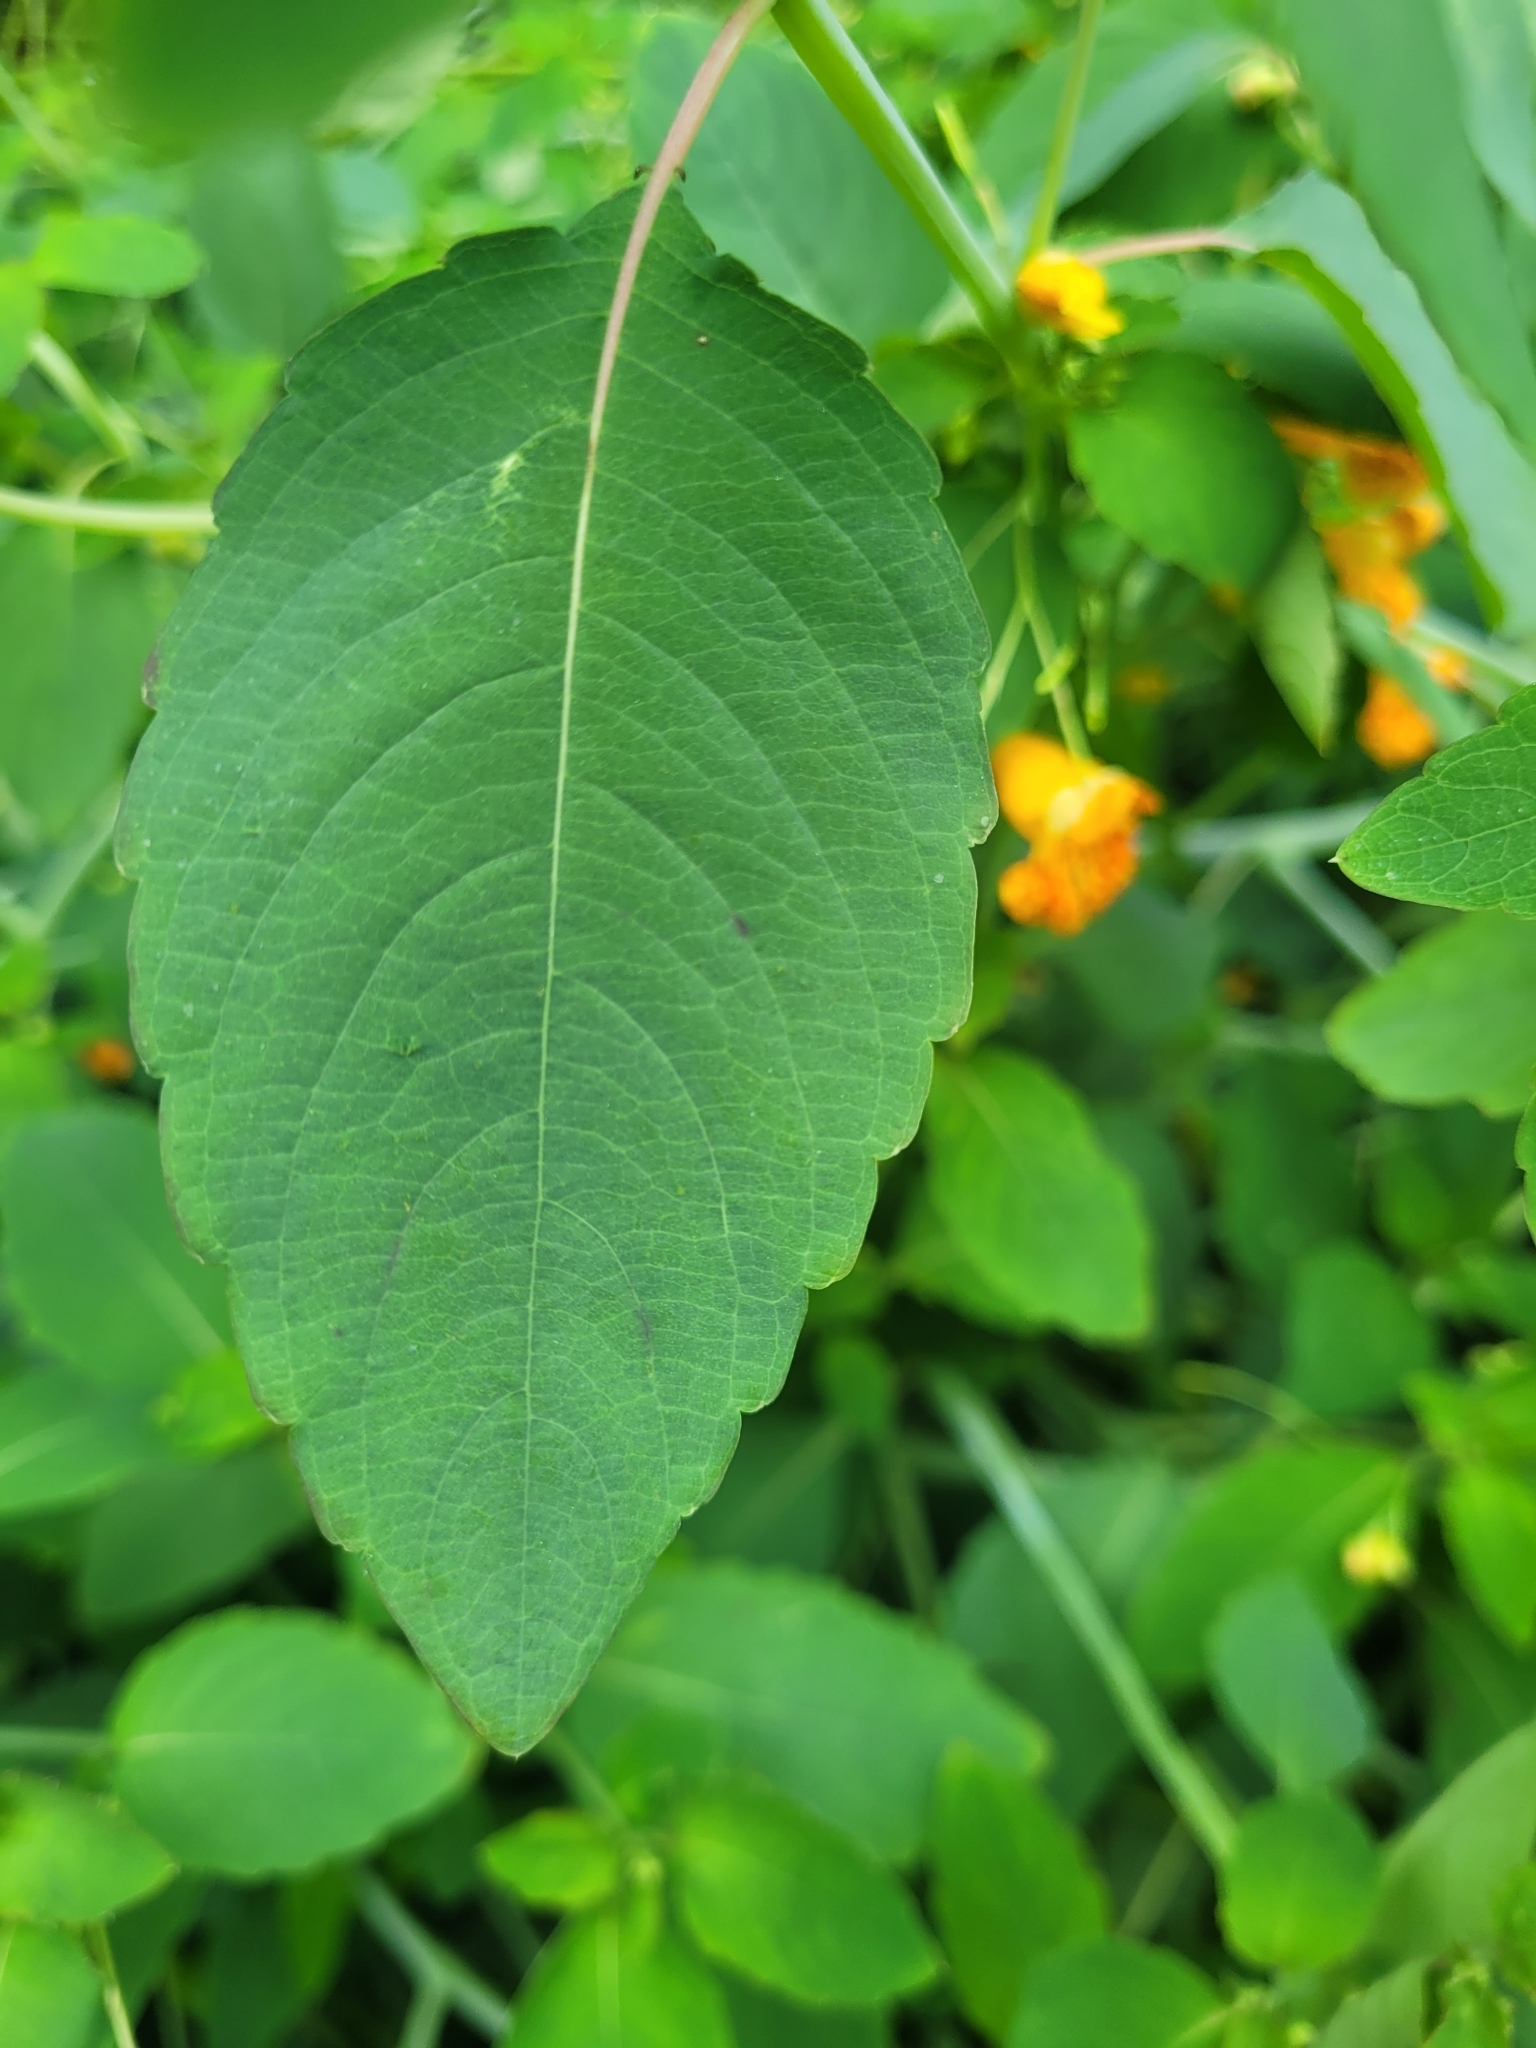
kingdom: Plantae
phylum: Tracheophyta
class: Magnoliopsida
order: Ericales
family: Balsaminaceae
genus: Impatiens
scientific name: Impatiens capensis
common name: Orange balsam
